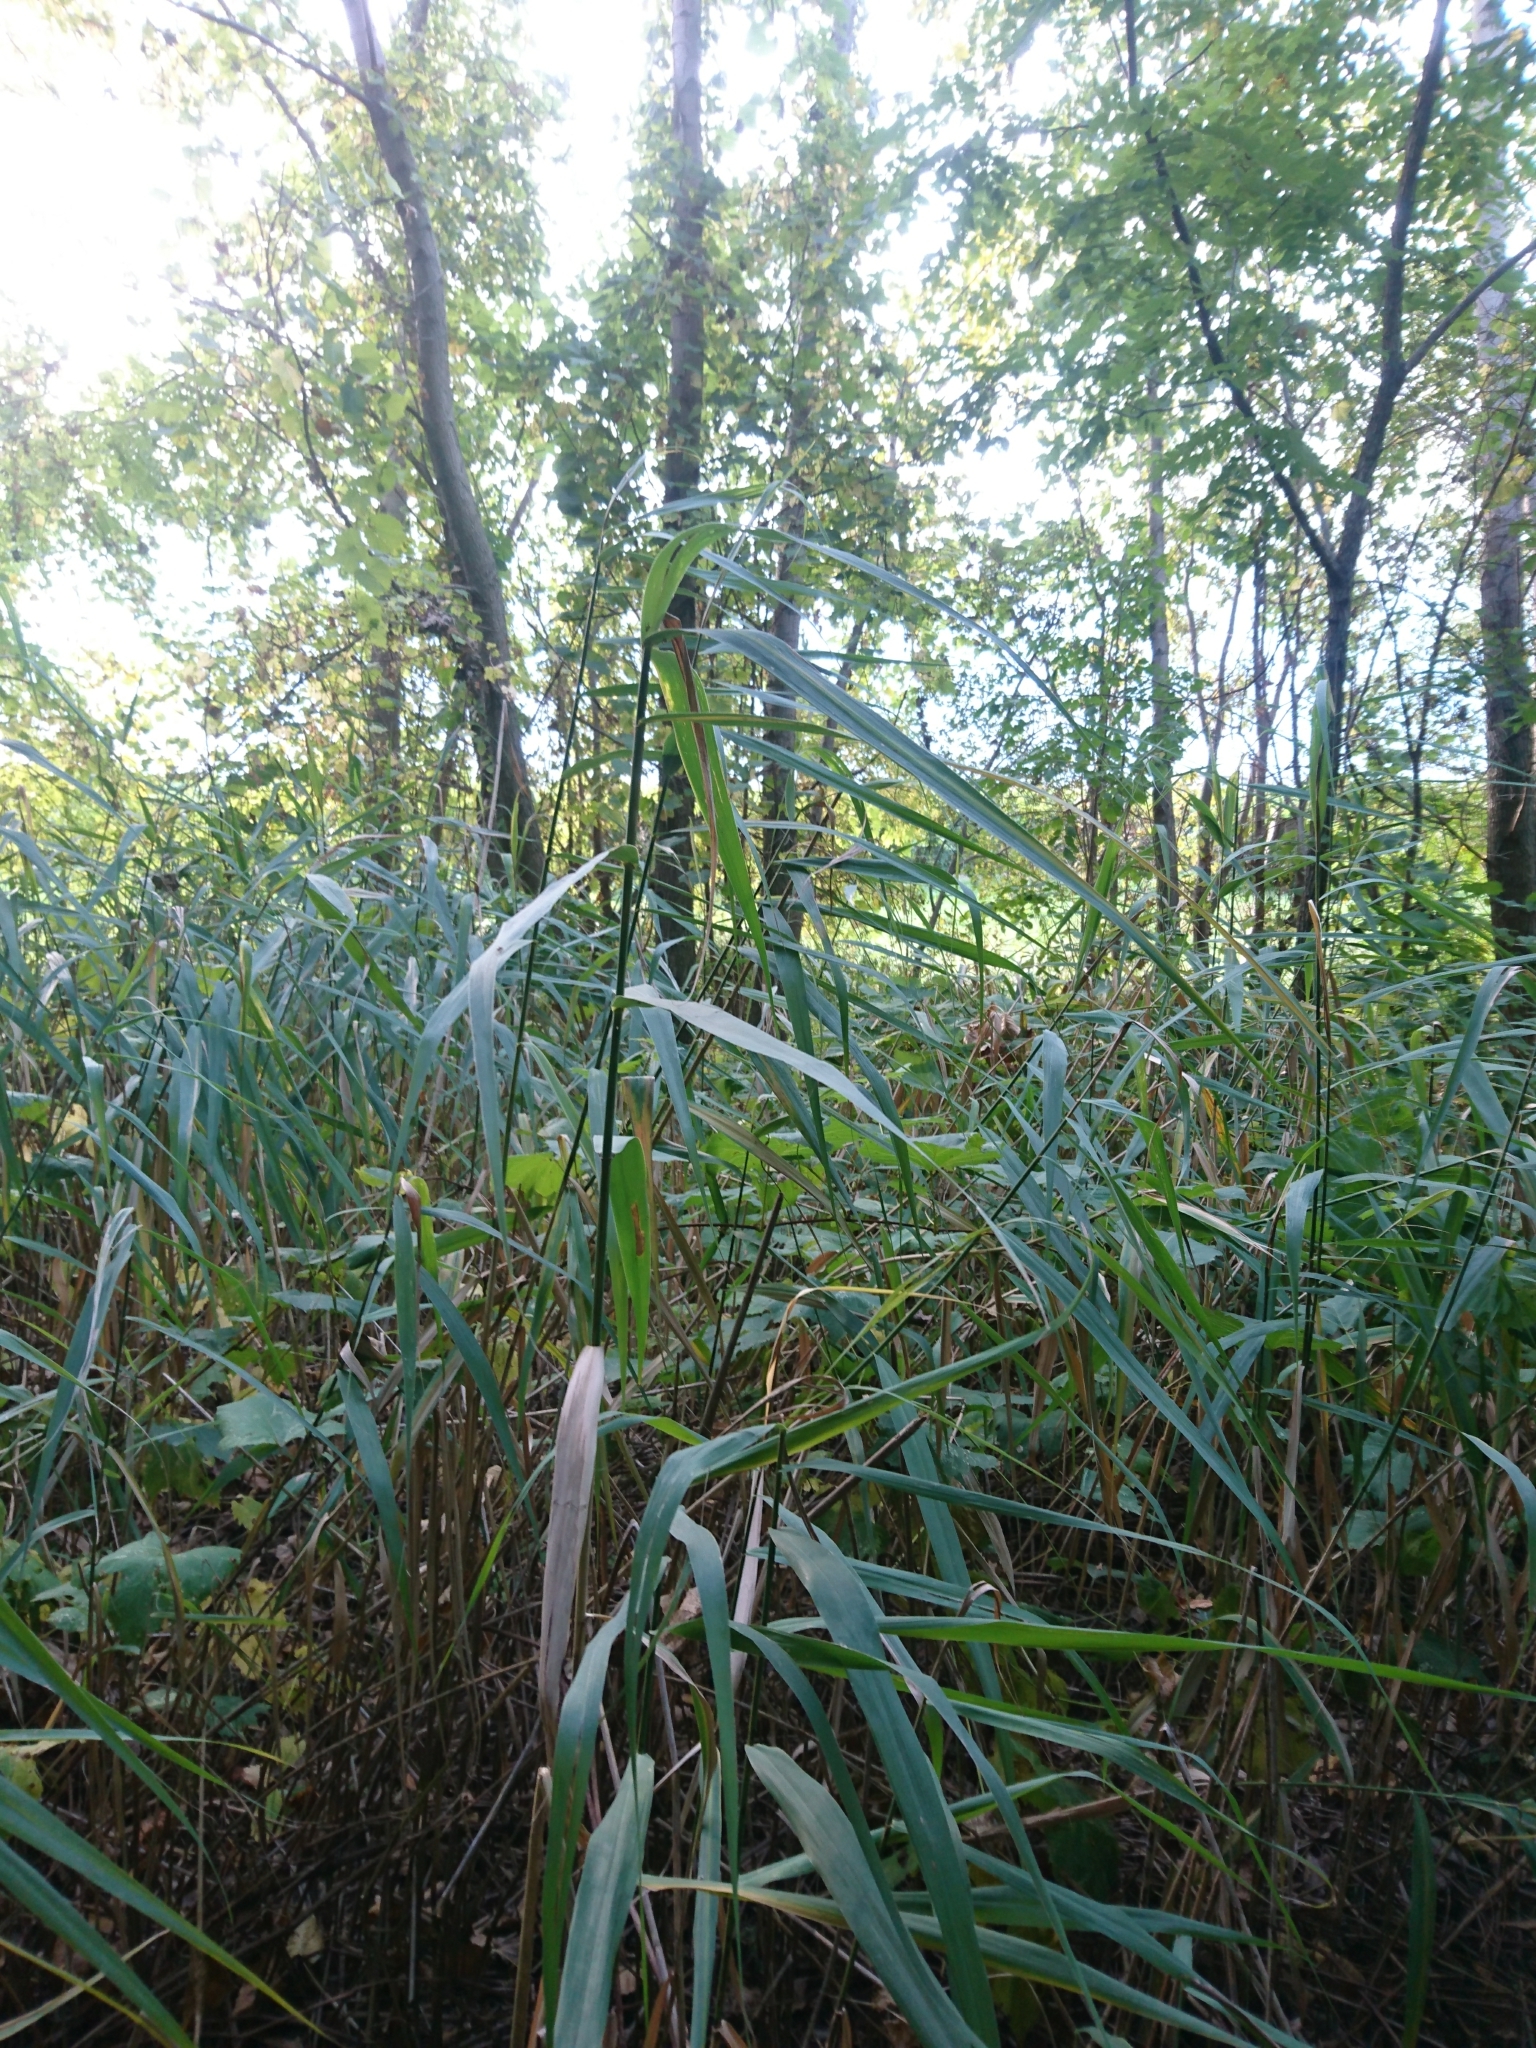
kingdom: Plantae
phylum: Tracheophyta
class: Liliopsida
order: Poales
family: Poaceae
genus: Phragmites
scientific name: Phragmites australis
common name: Common reed
